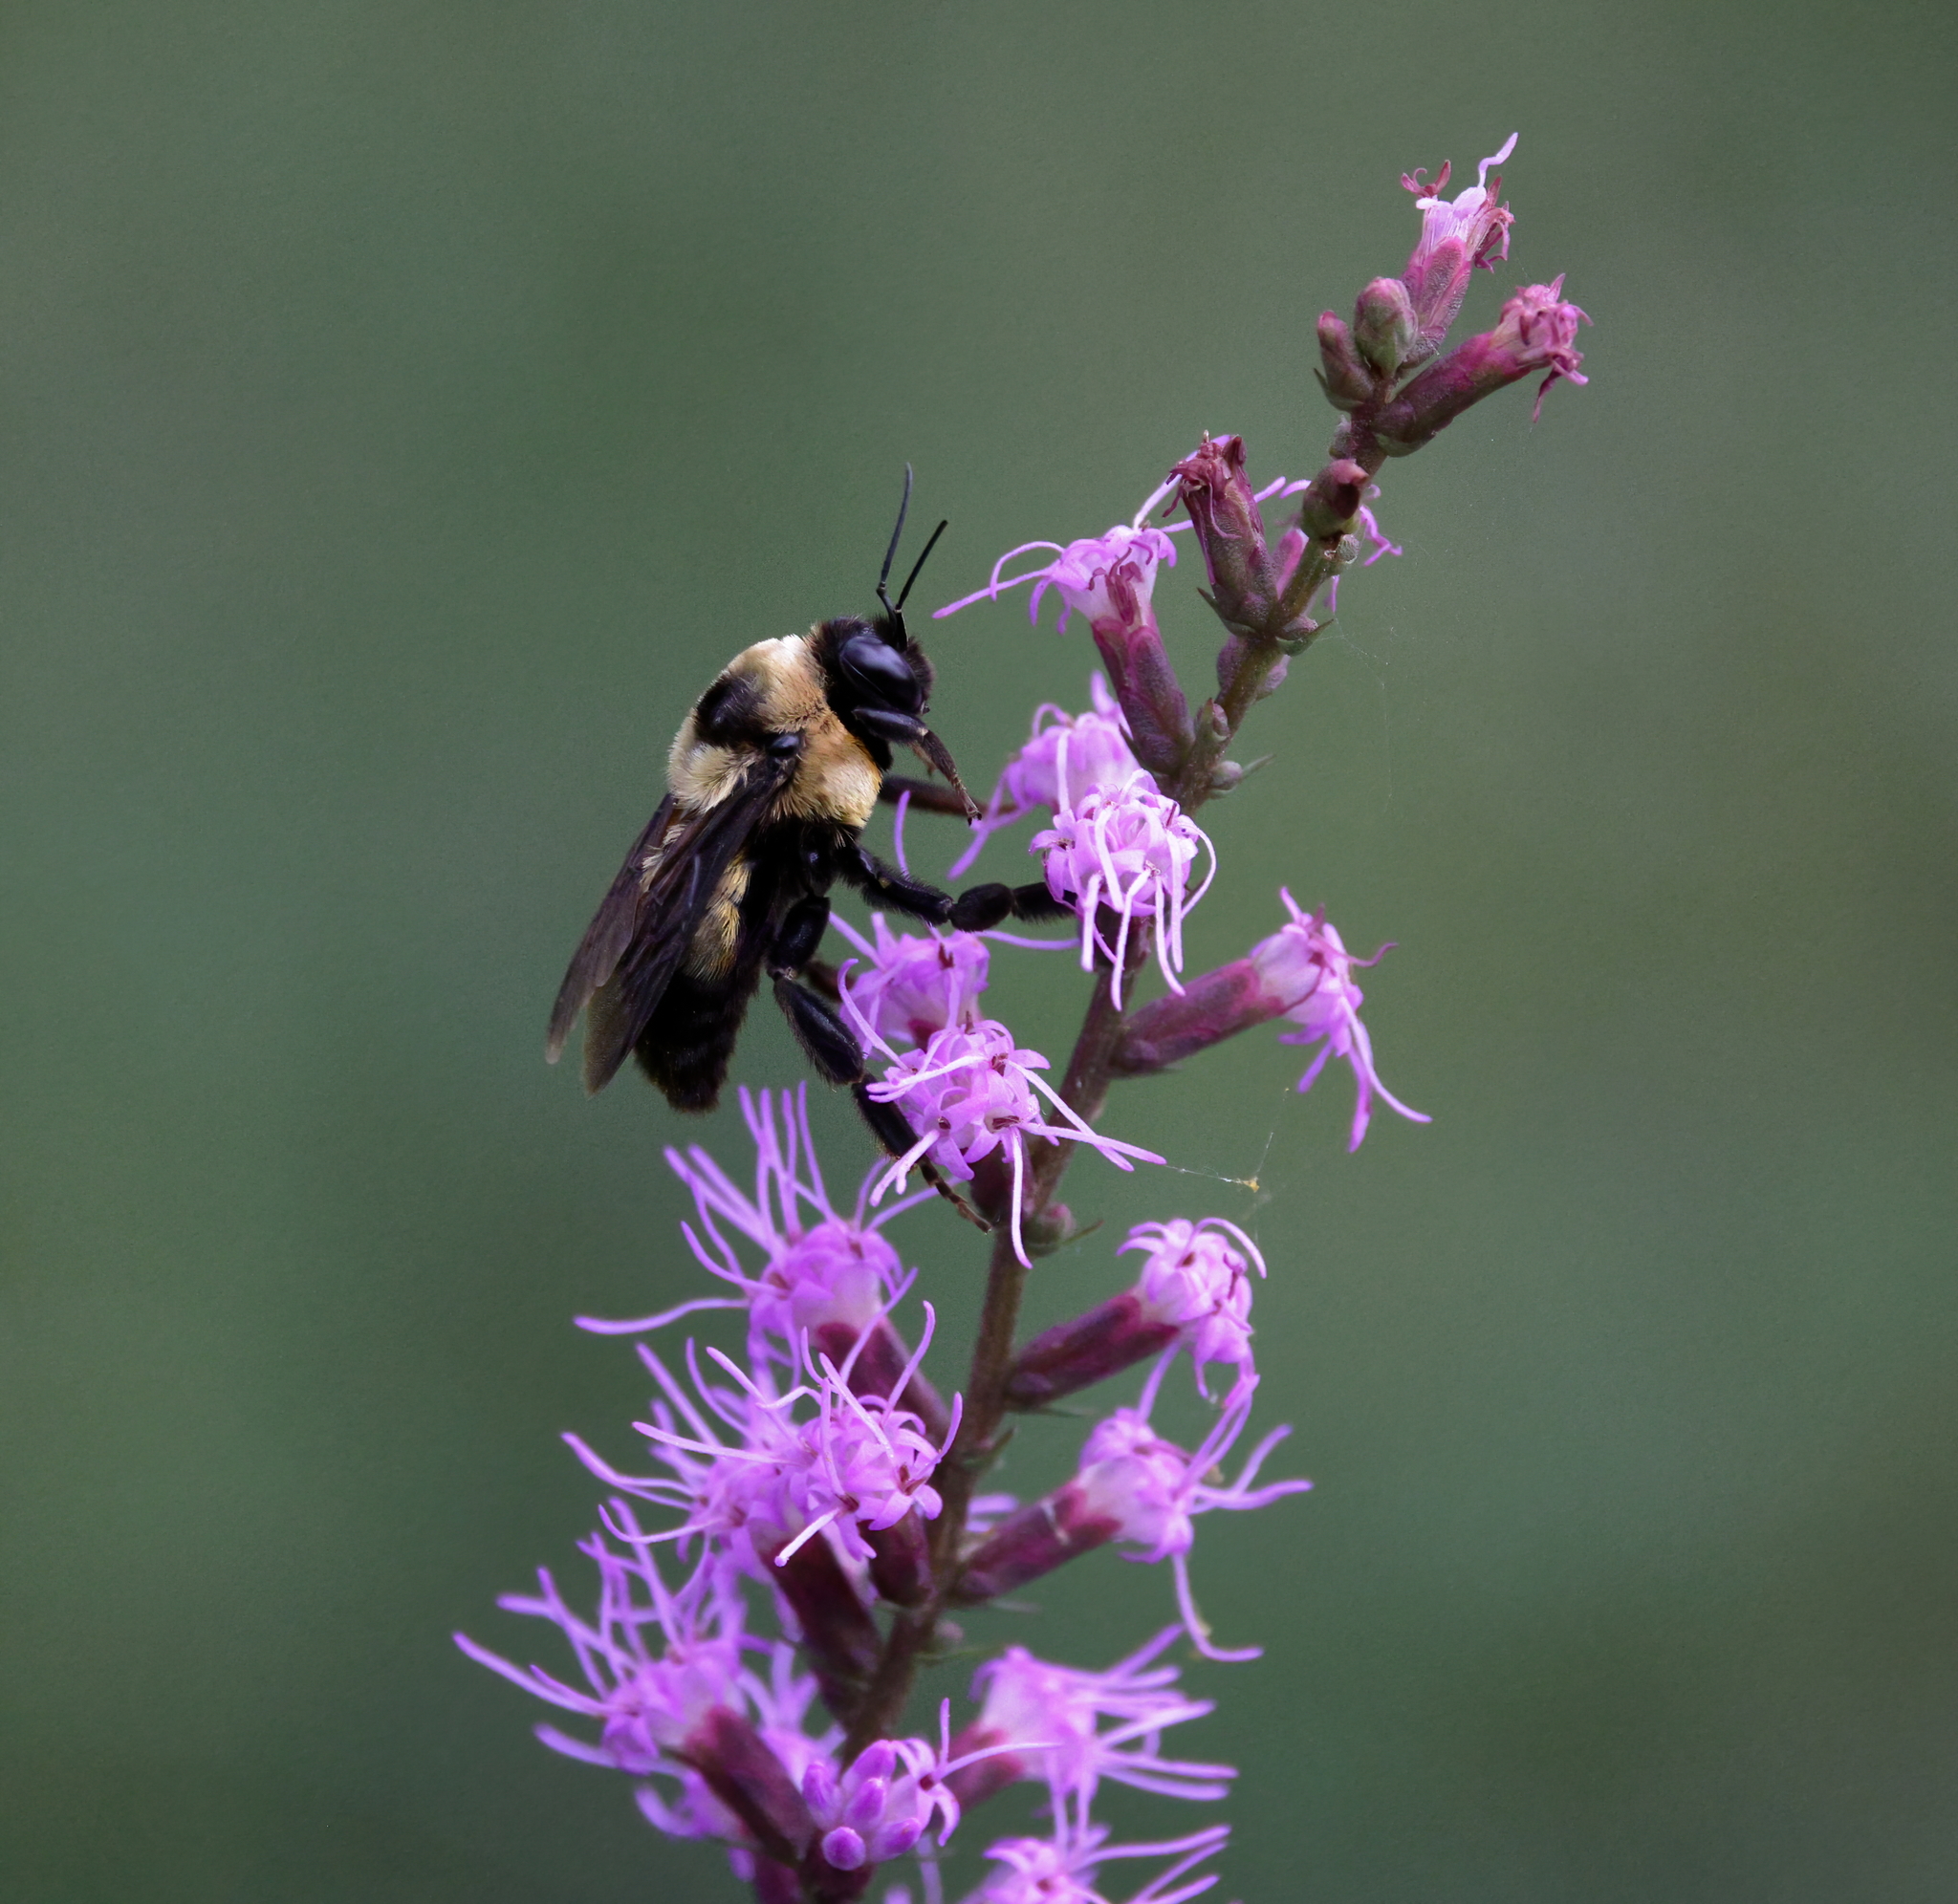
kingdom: Animalia
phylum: Arthropoda
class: Insecta
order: Hymenoptera
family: Apidae
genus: Bombus
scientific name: Bombus fraternus
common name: Southern plains bumble bee
